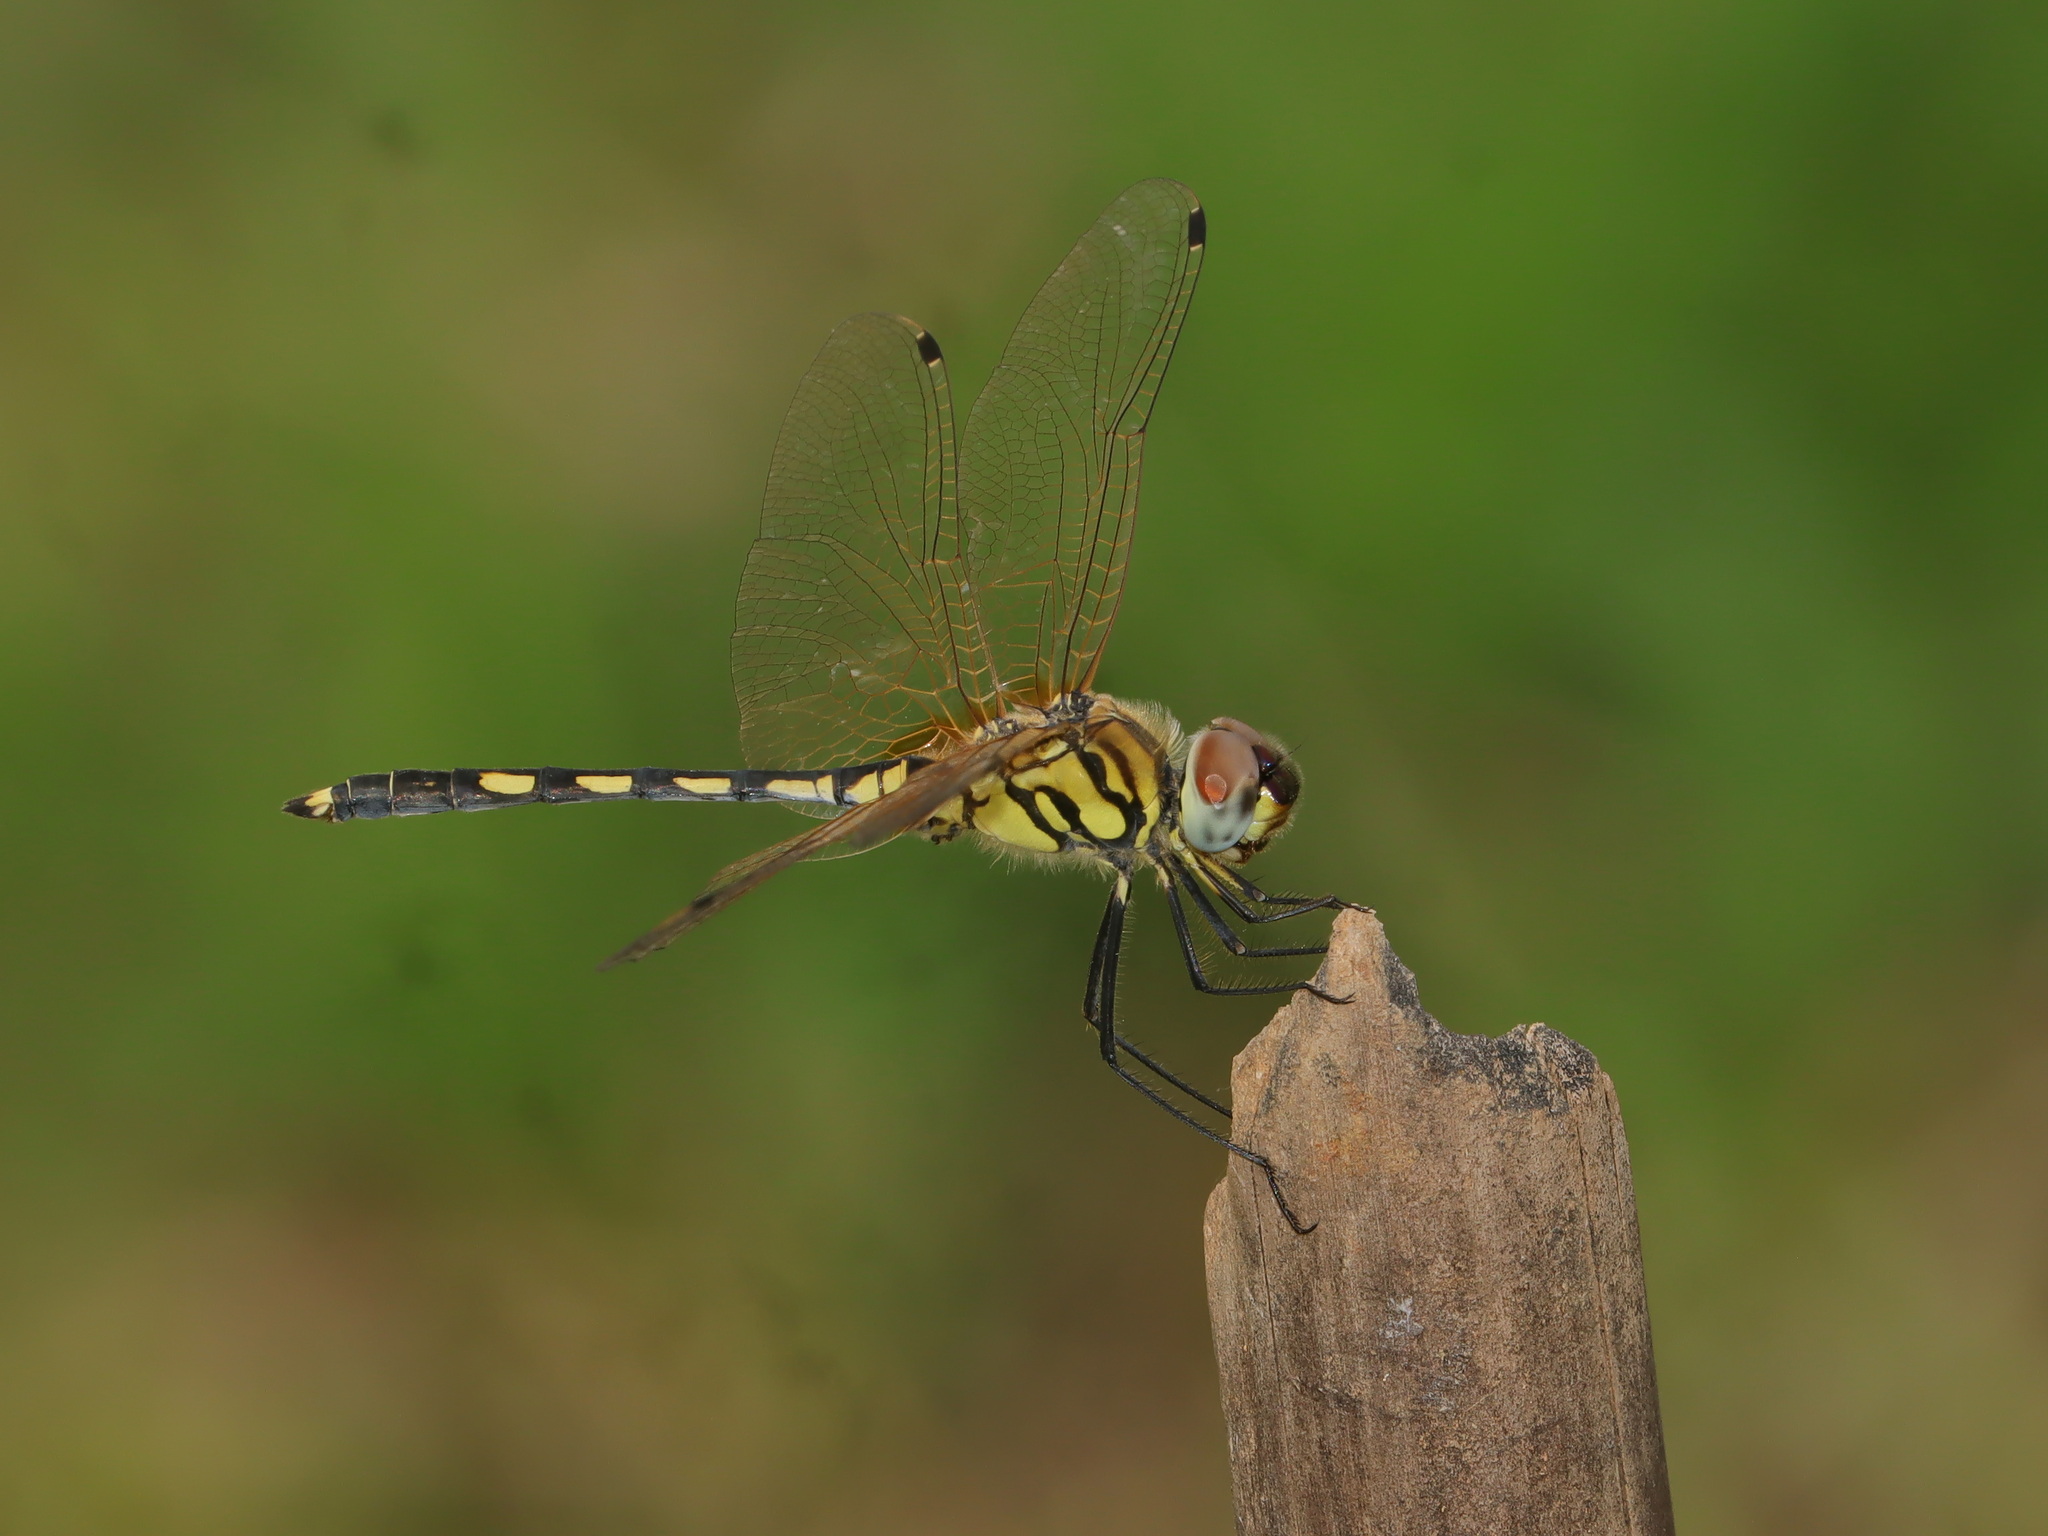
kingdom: Animalia
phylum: Arthropoda
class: Insecta
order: Odonata
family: Libellulidae
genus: Trithemis
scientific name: Trithemis pallidinervis
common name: Dancing dropwing
